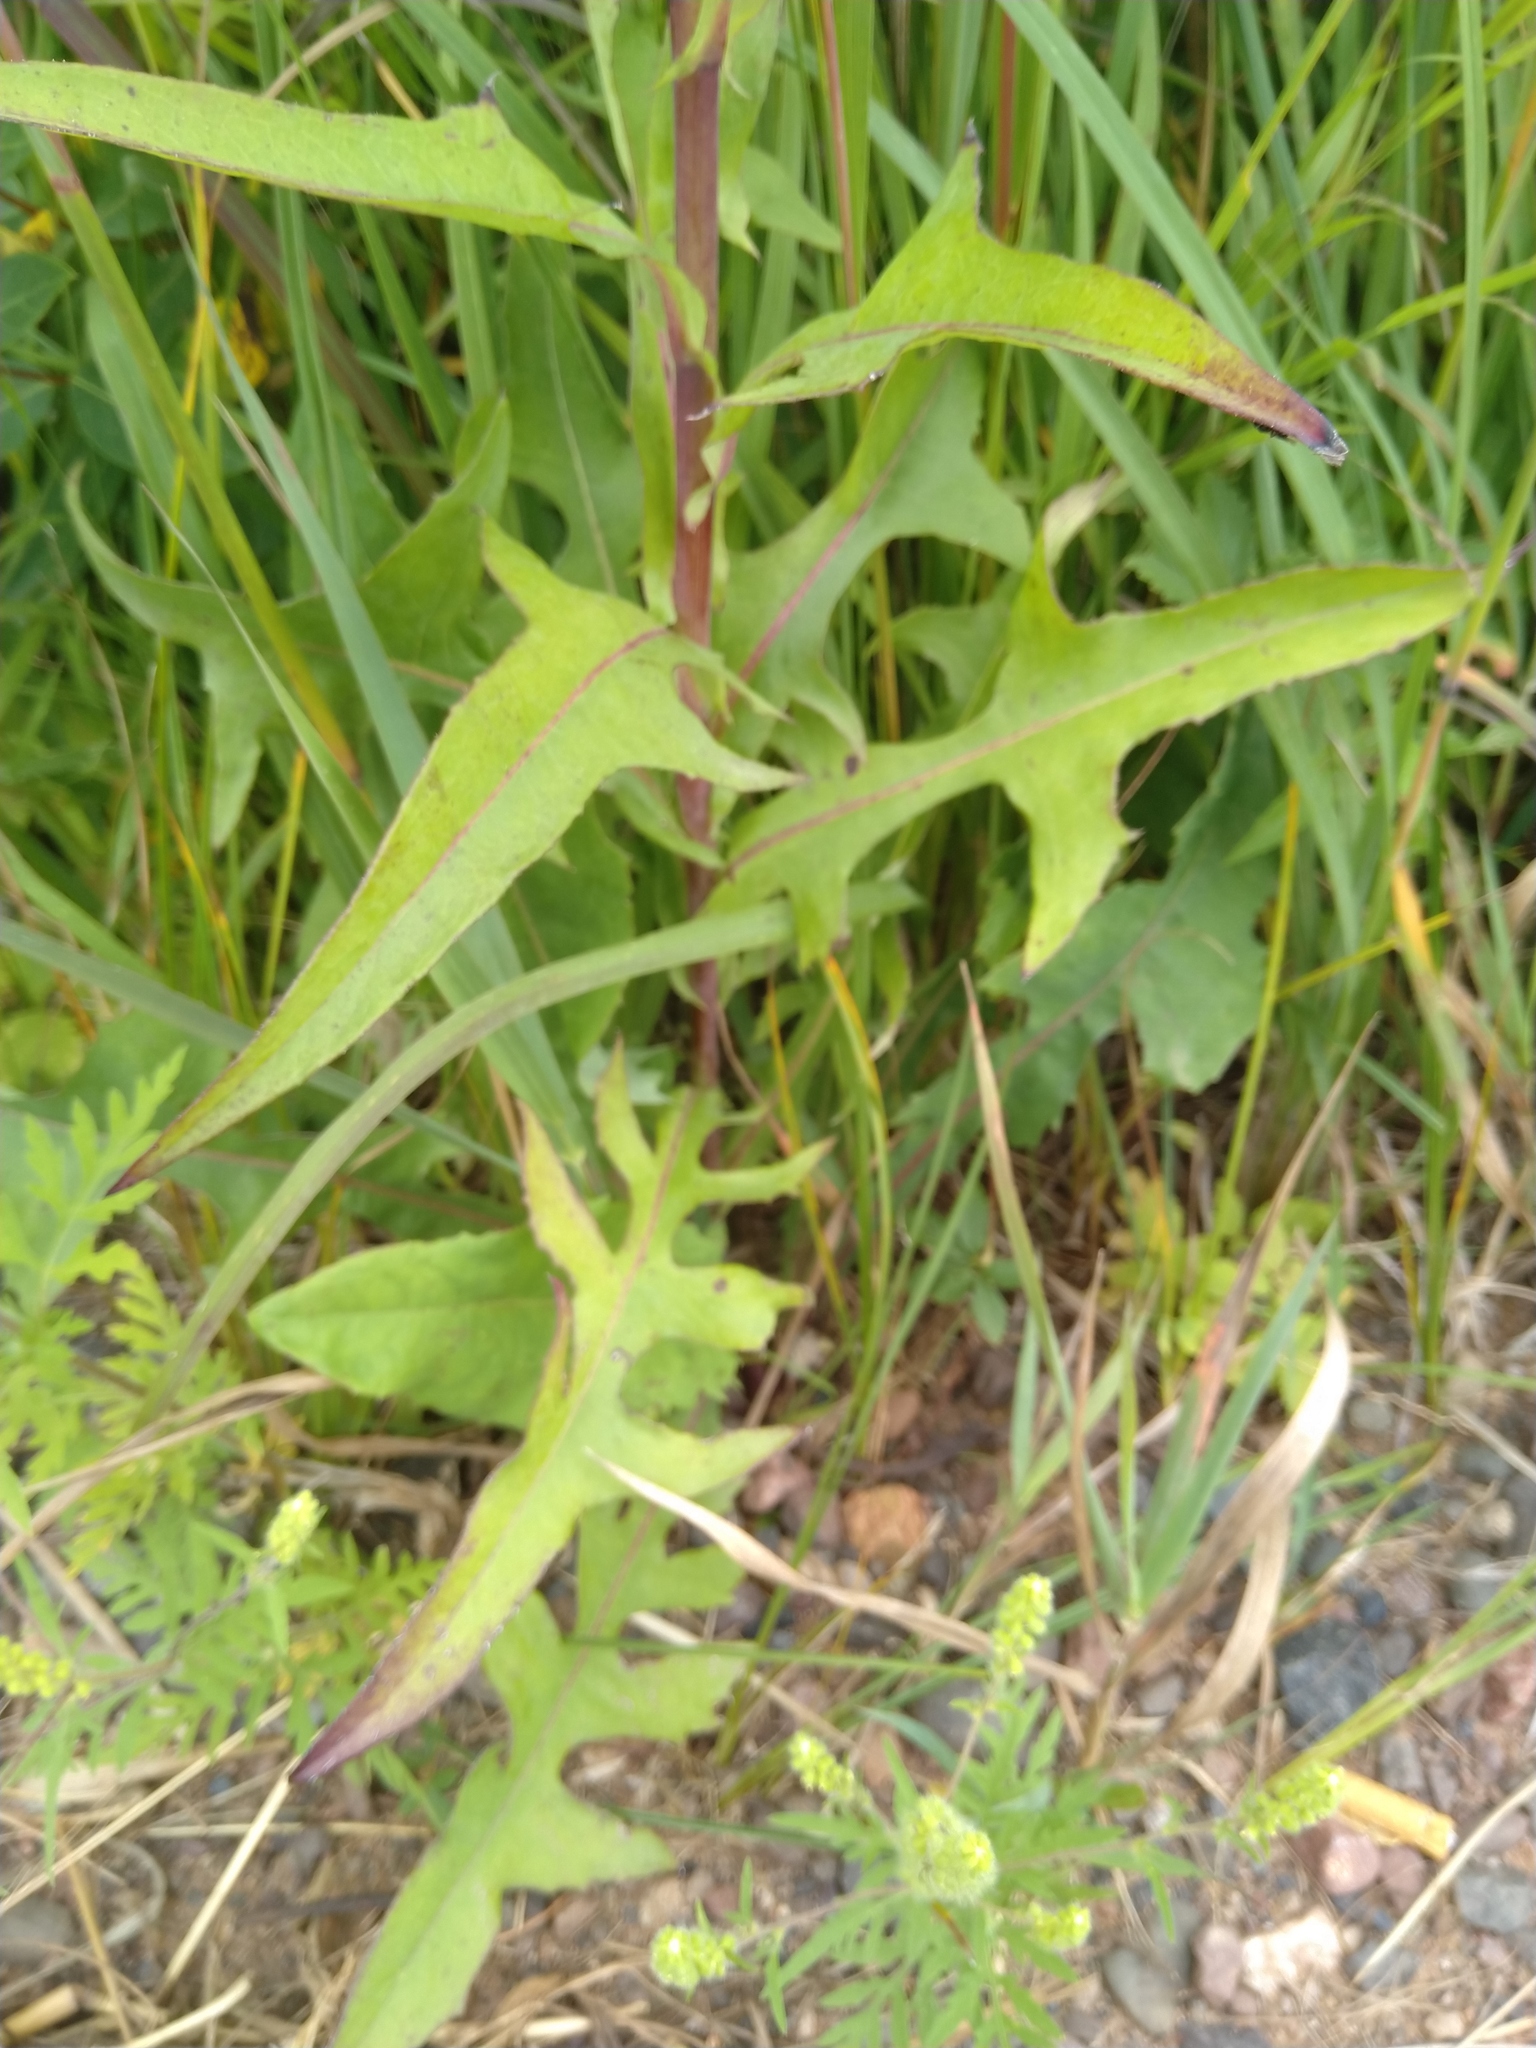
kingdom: Plantae
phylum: Tracheophyta
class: Magnoliopsida
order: Asterales
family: Asteraceae
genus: Lactuca
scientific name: Lactuca canadensis
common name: Canada lettuce
